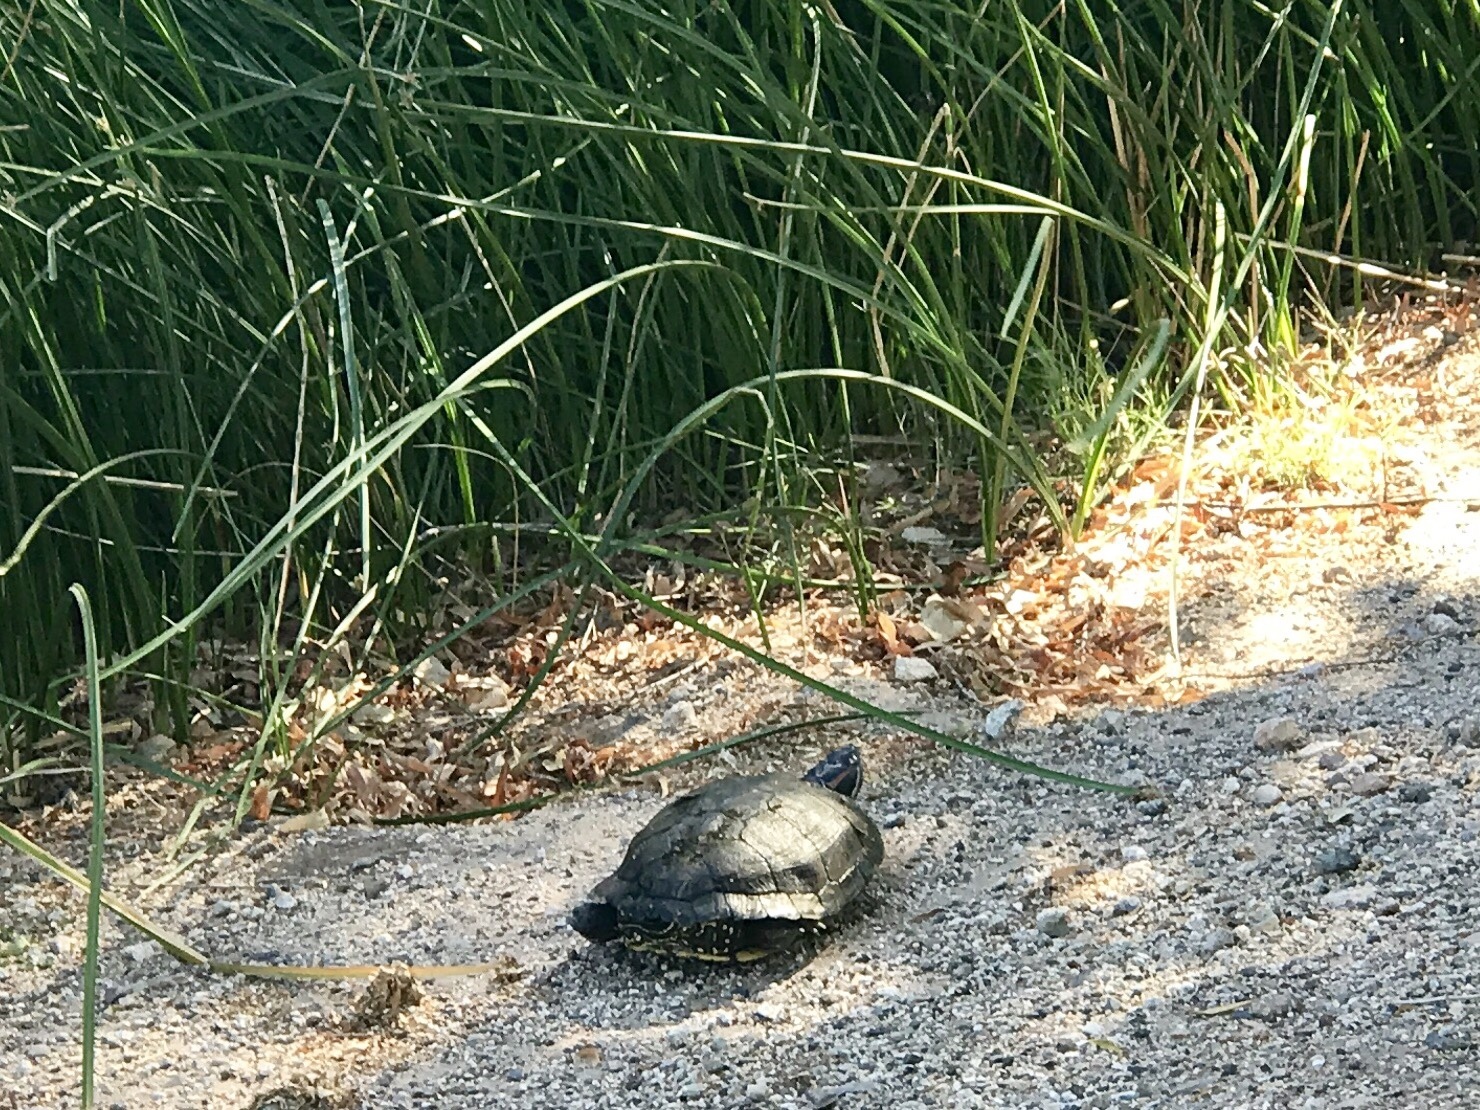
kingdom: Animalia
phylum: Chordata
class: Testudines
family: Emydidae
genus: Trachemys
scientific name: Trachemys scripta
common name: Slider
